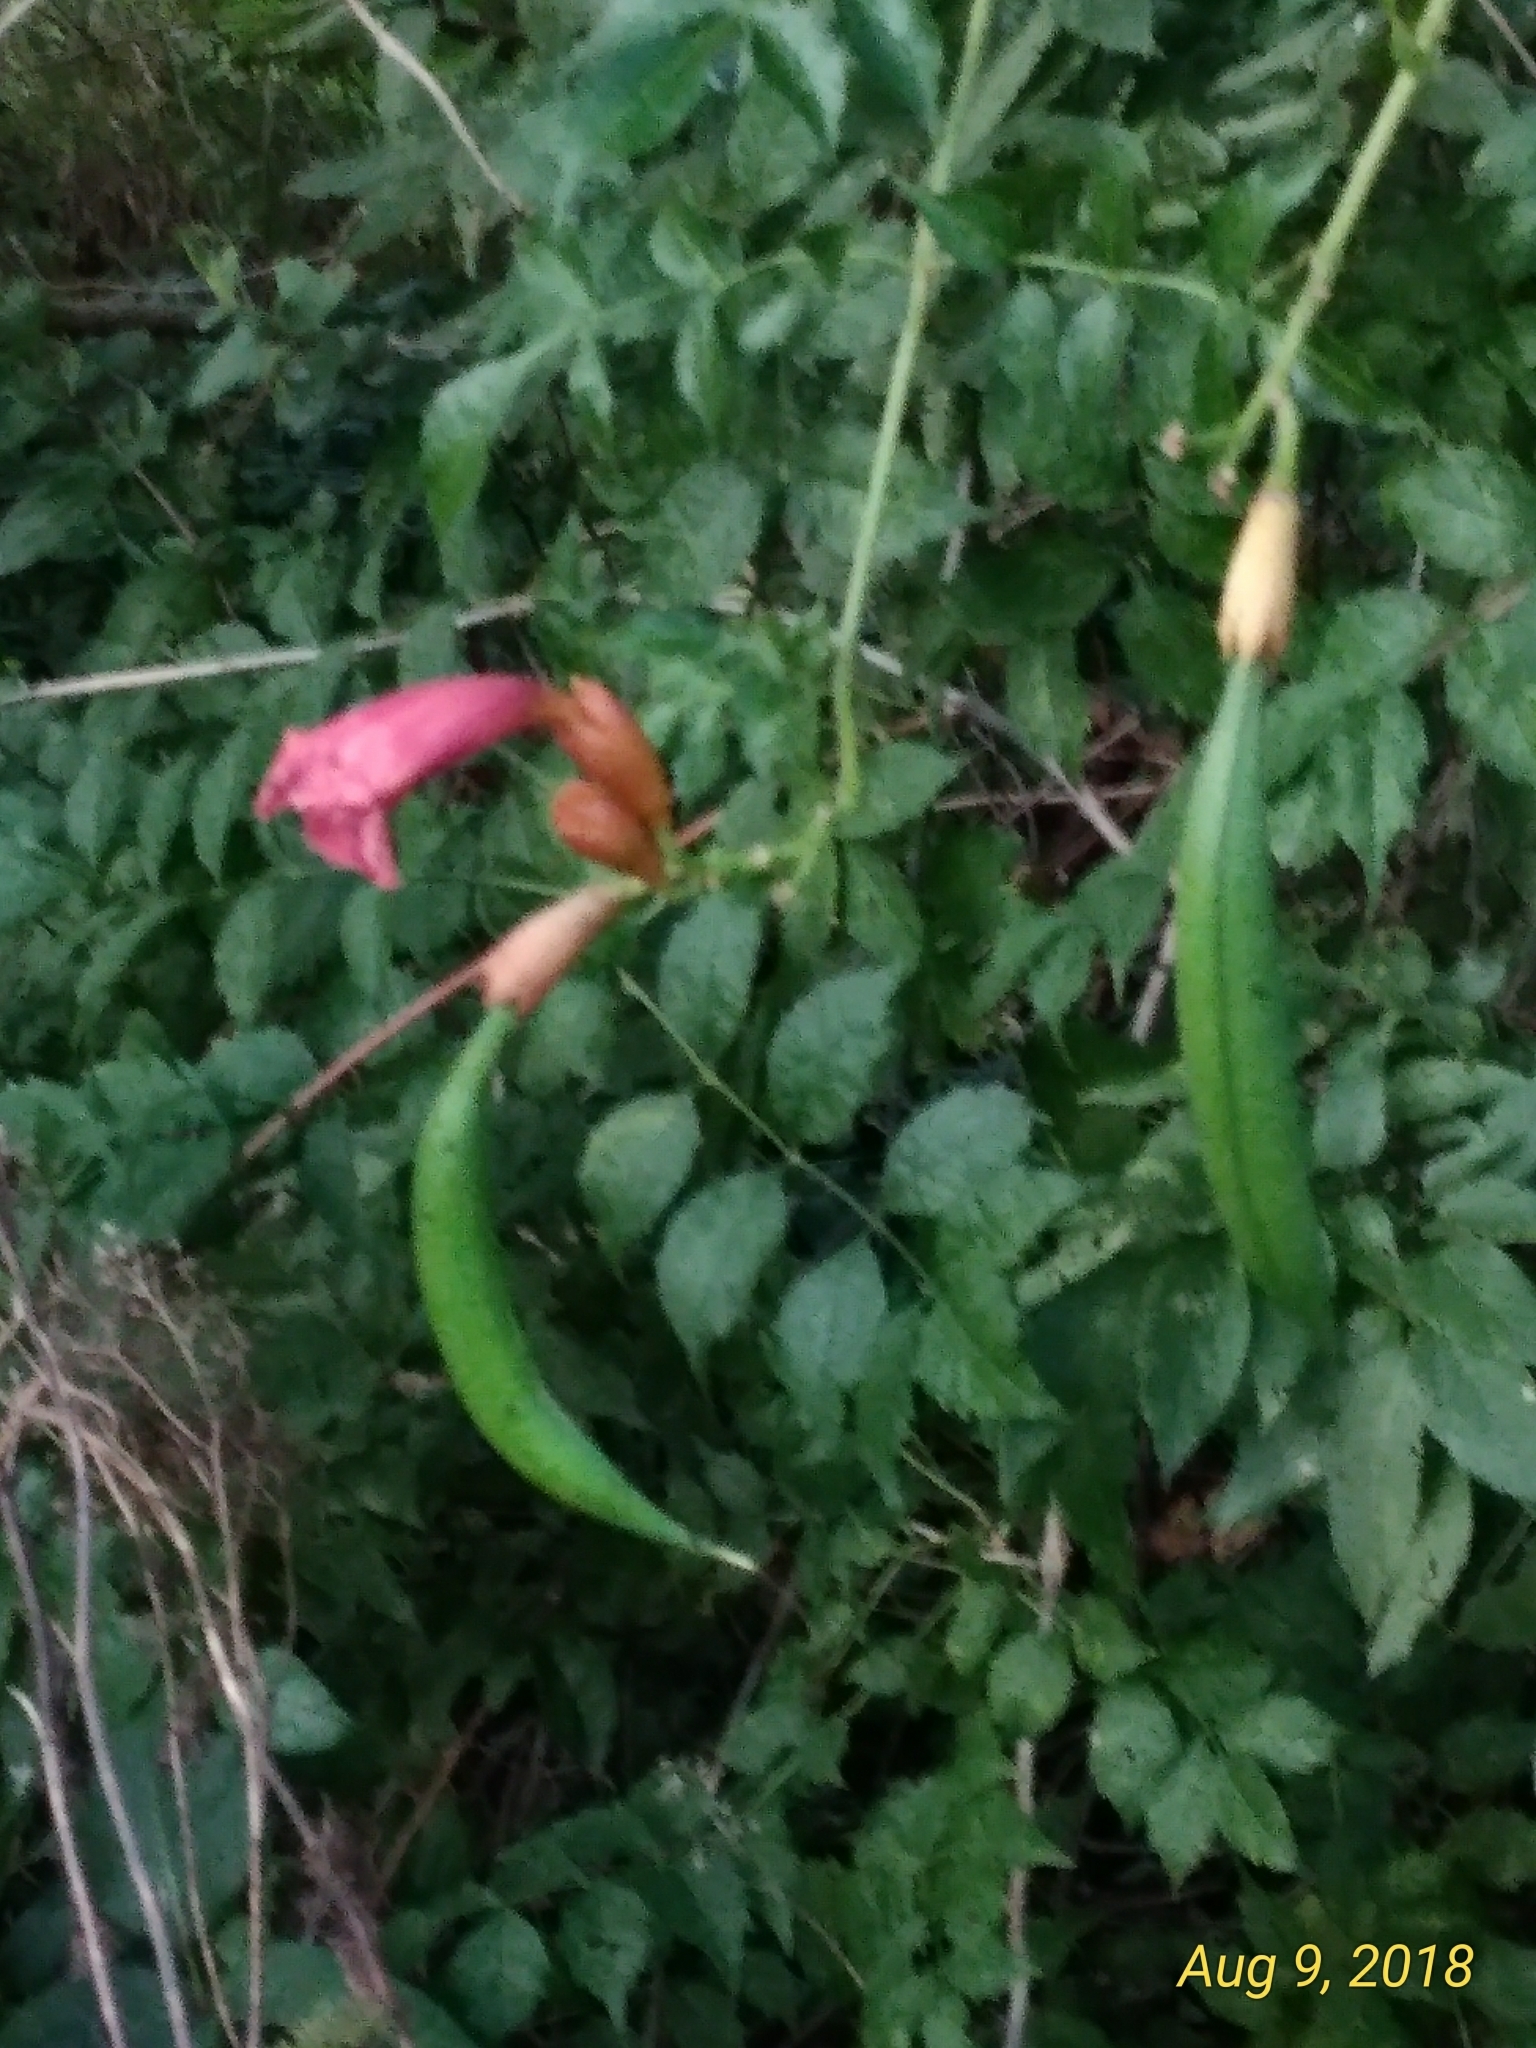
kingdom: Plantae
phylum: Tracheophyta
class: Magnoliopsida
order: Lamiales
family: Bignoniaceae
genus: Campsis
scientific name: Campsis radicans
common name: Trumpet-creeper
